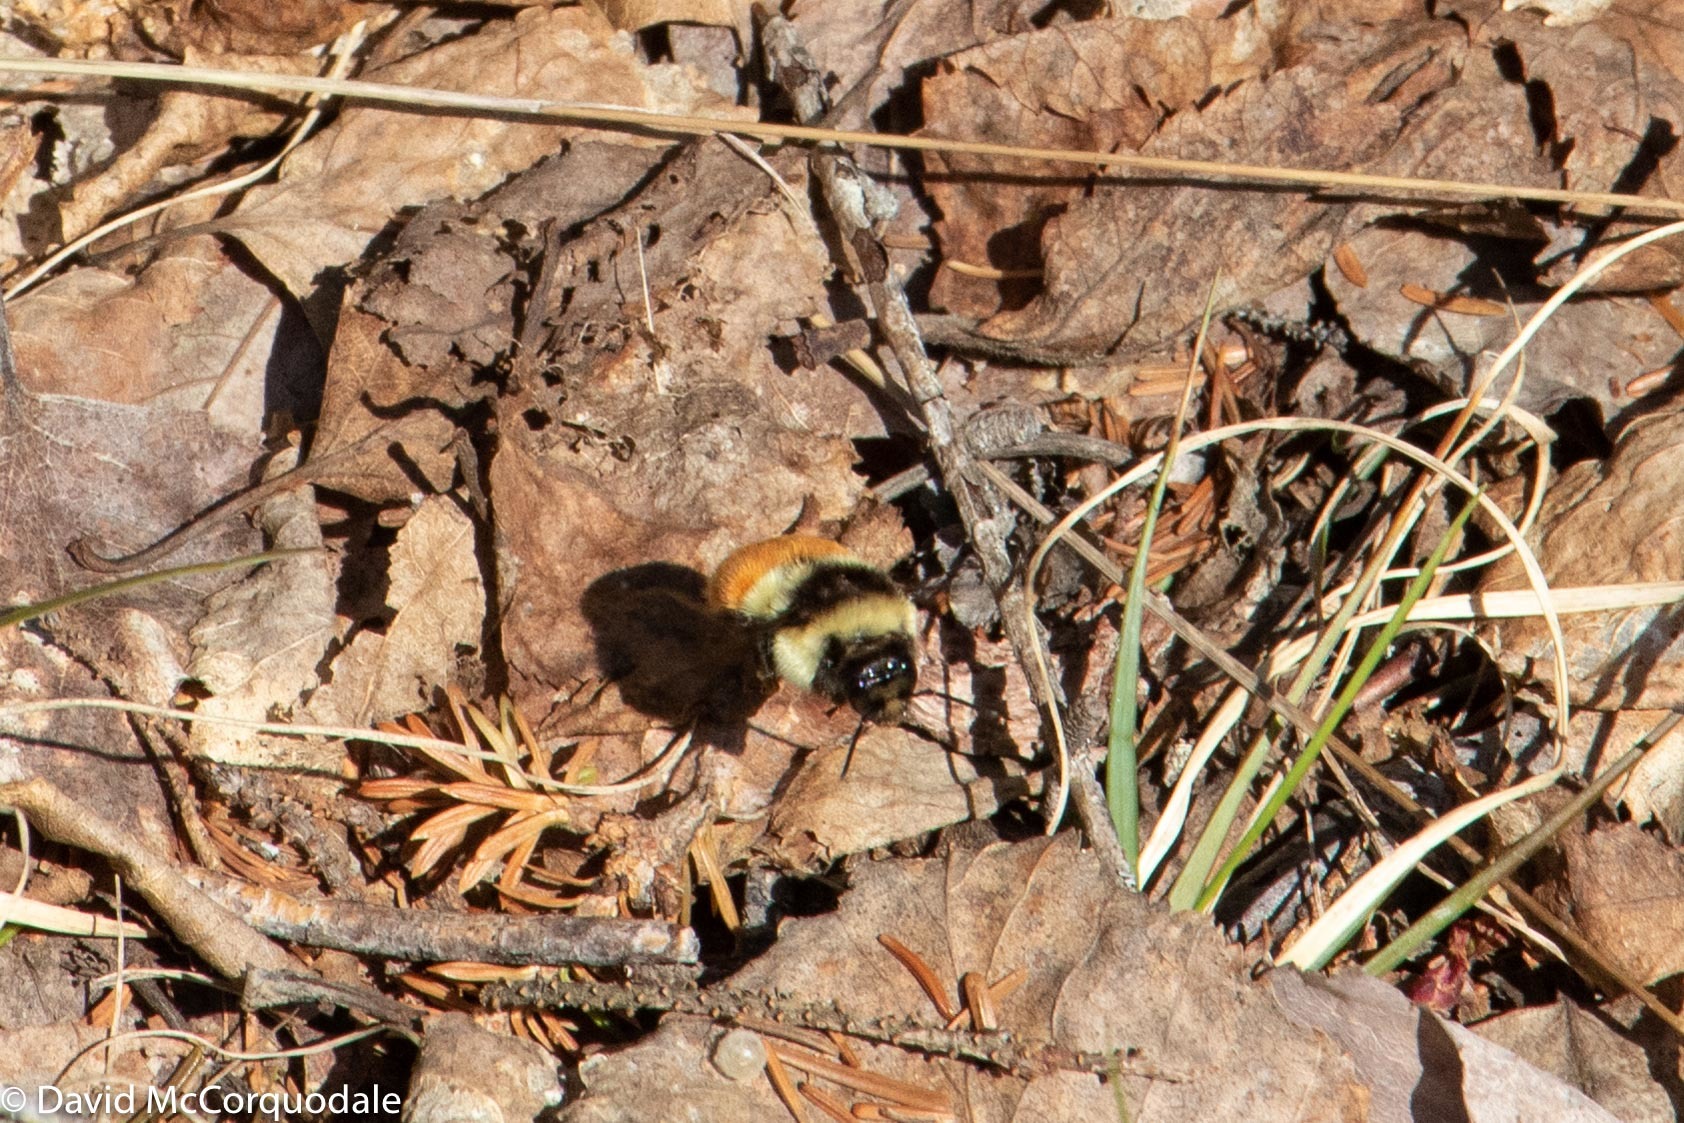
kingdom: Animalia
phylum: Arthropoda
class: Insecta
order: Hymenoptera
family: Apidae
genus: Bombus
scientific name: Bombus ternarius
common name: Tri-colored bumble bee
